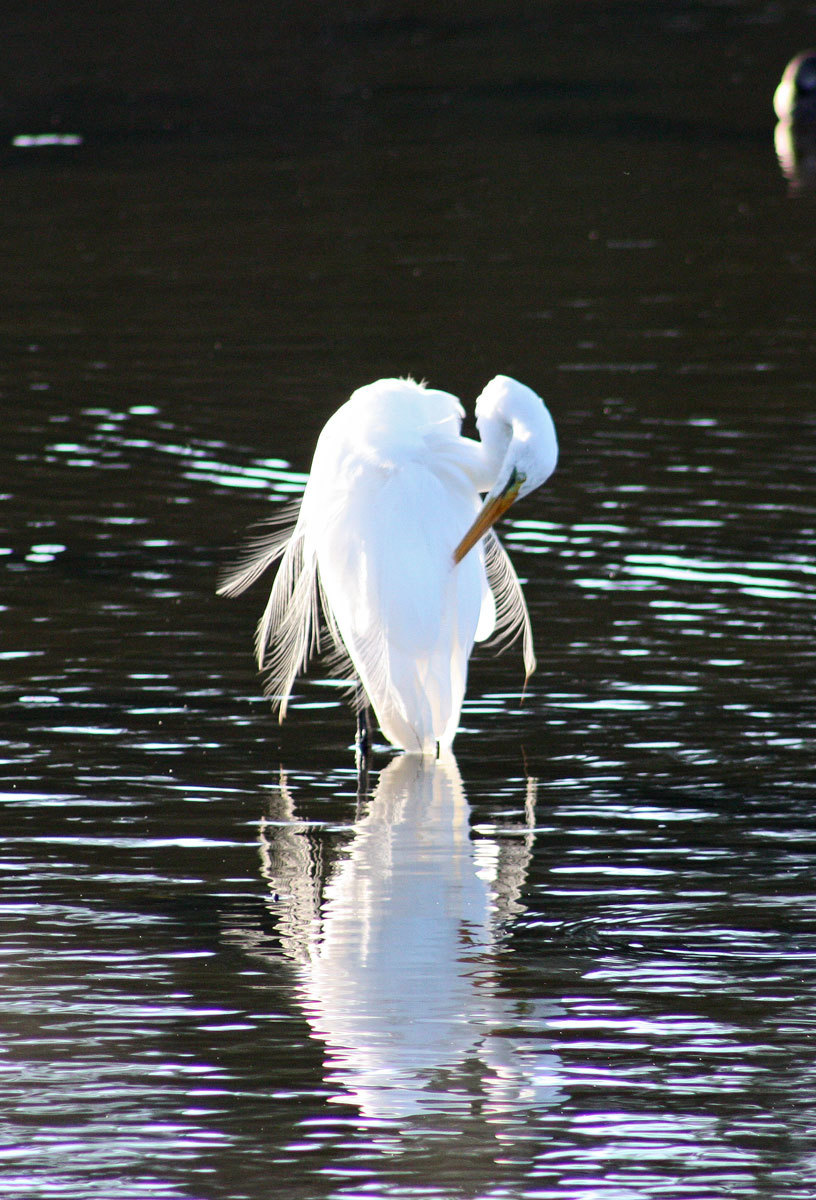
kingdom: Animalia
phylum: Chordata
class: Aves
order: Pelecaniformes
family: Ardeidae
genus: Ardea
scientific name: Ardea modesta
